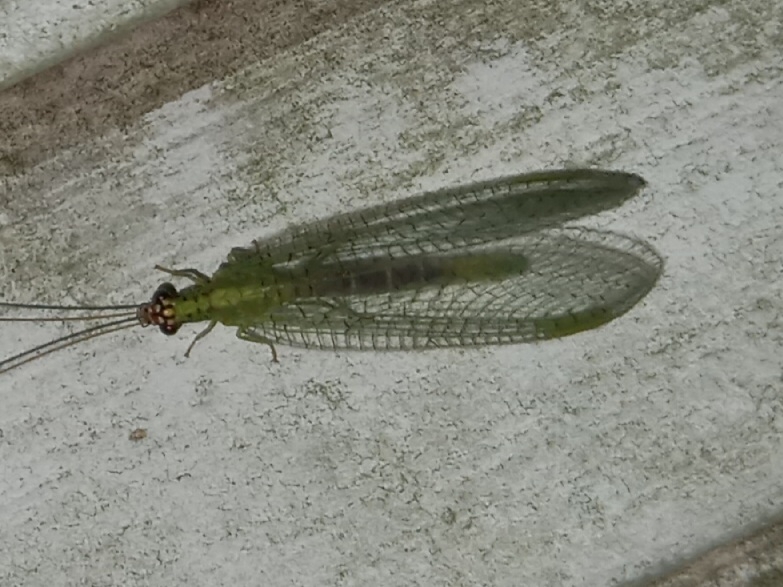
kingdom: Animalia
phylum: Arthropoda
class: Insecta
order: Neuroptera
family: Chrysopidae
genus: Chrysopa
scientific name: Chrysopa oculata
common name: Golden-eyed lacewing
